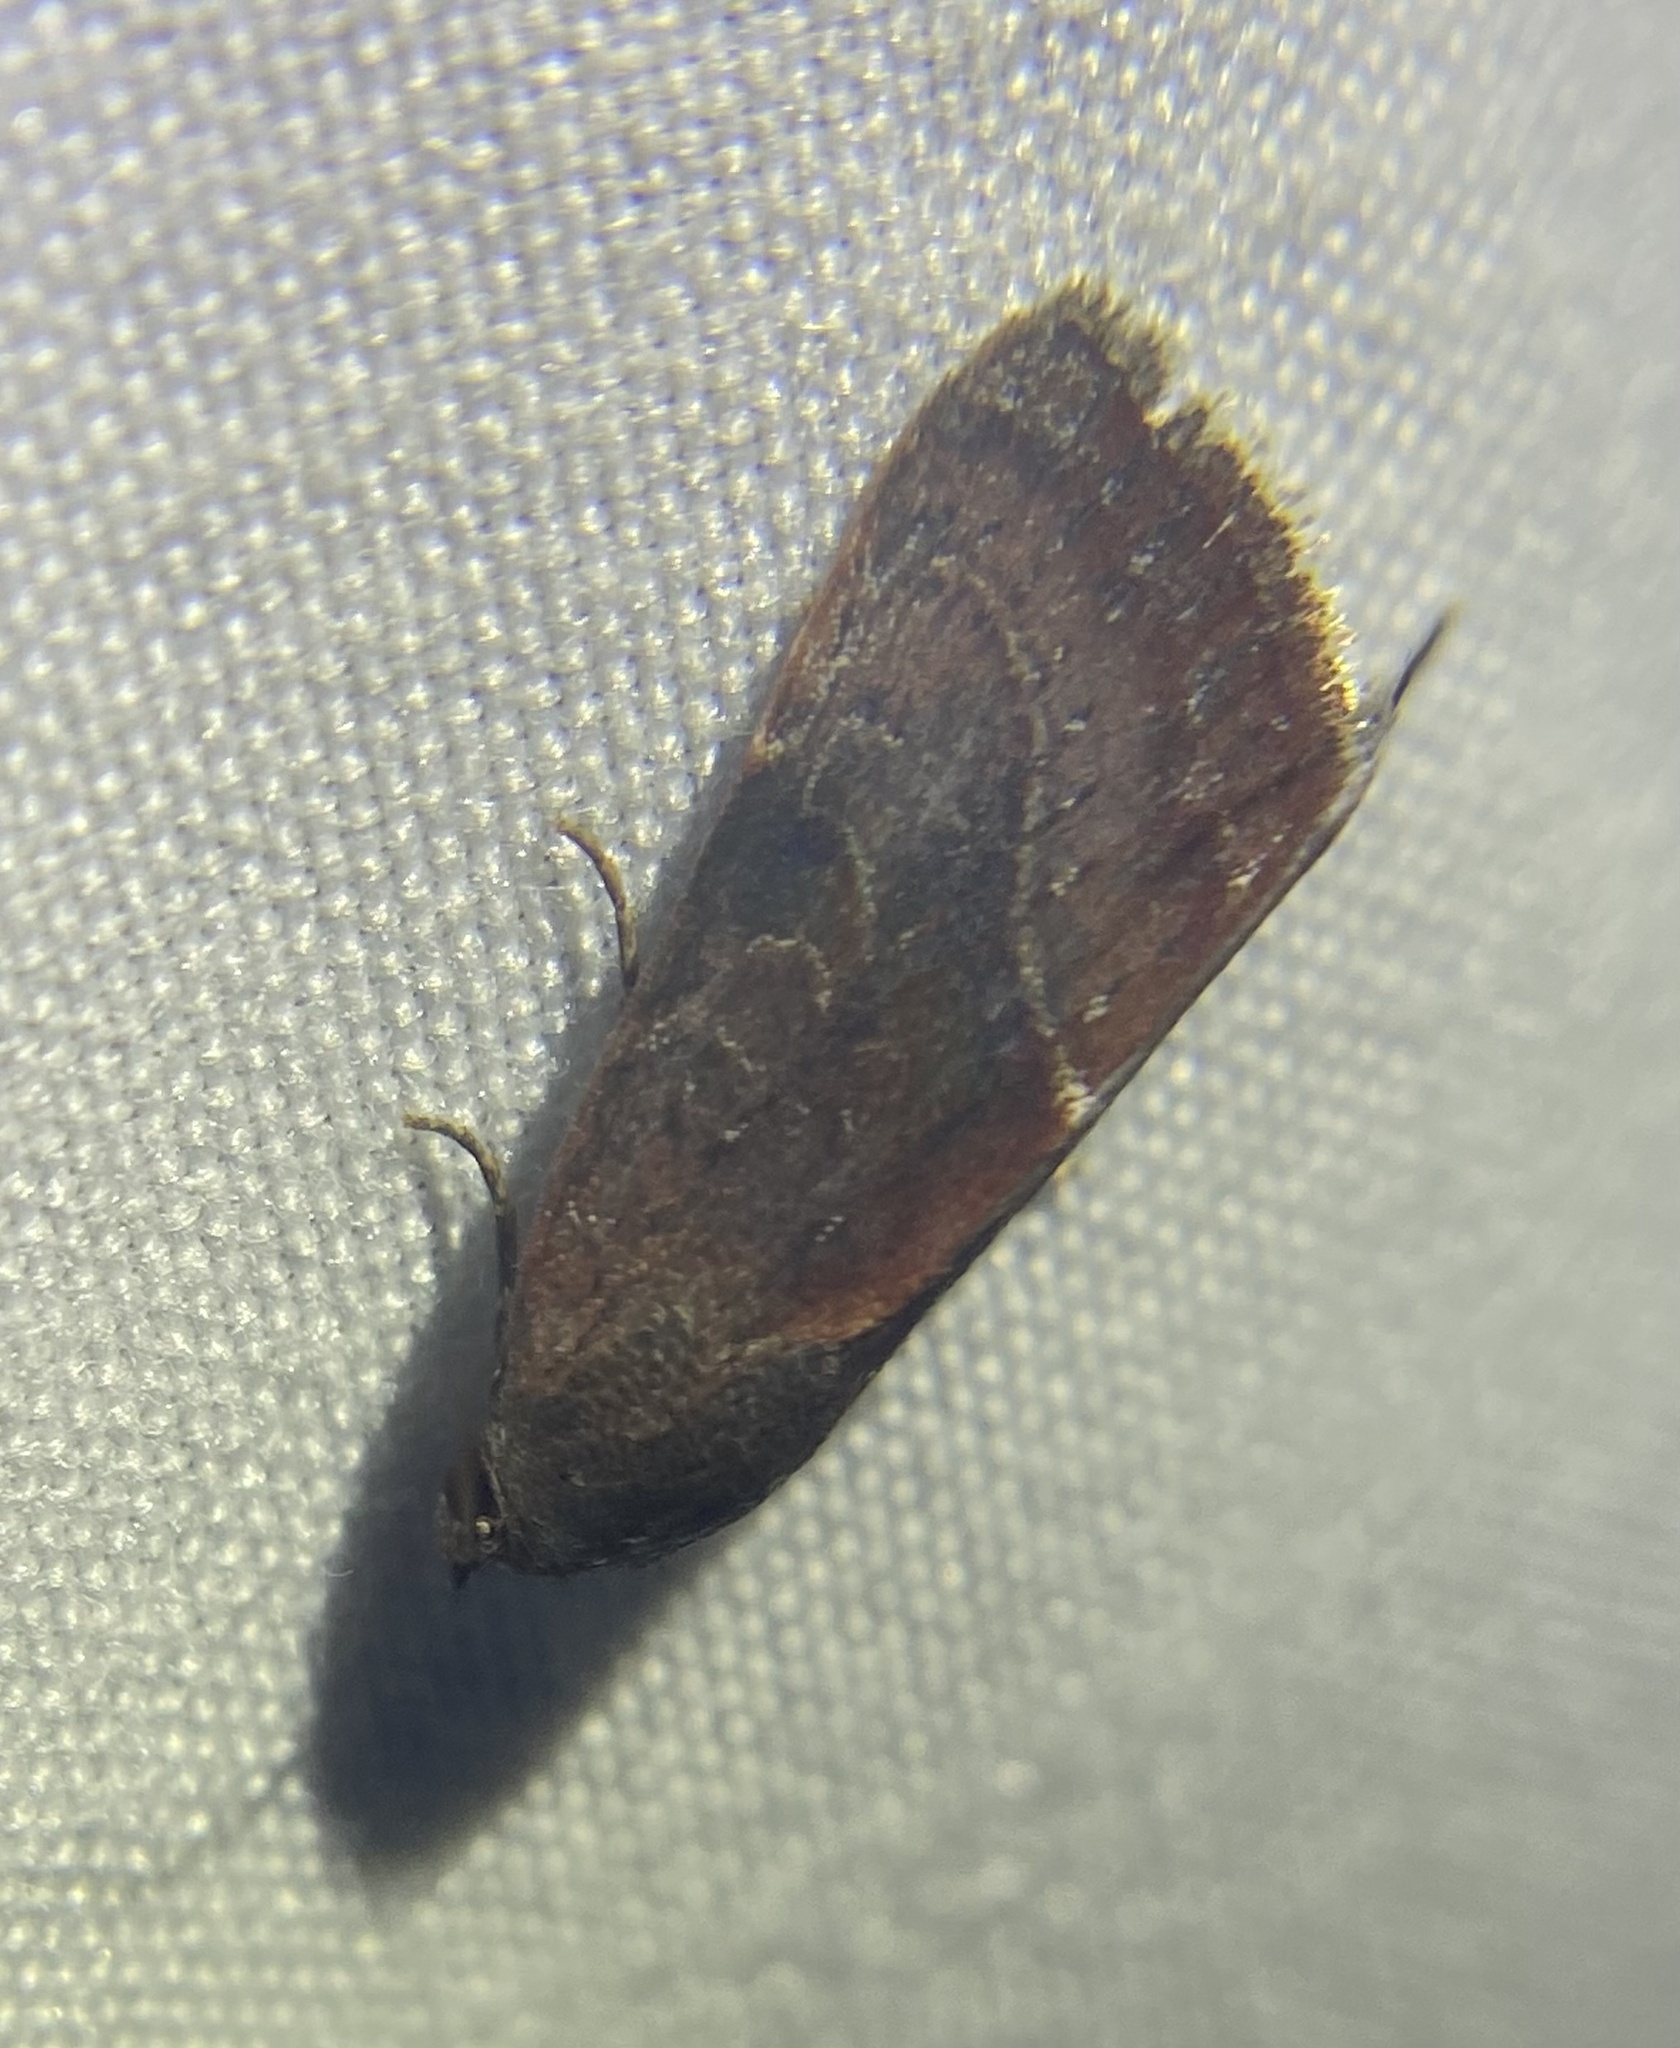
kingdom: Animalia
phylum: Arthropoda
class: Insecta
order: Lepidoptera
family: Noctuidae
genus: Galgula
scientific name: Galgula partita
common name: Wedgeling
